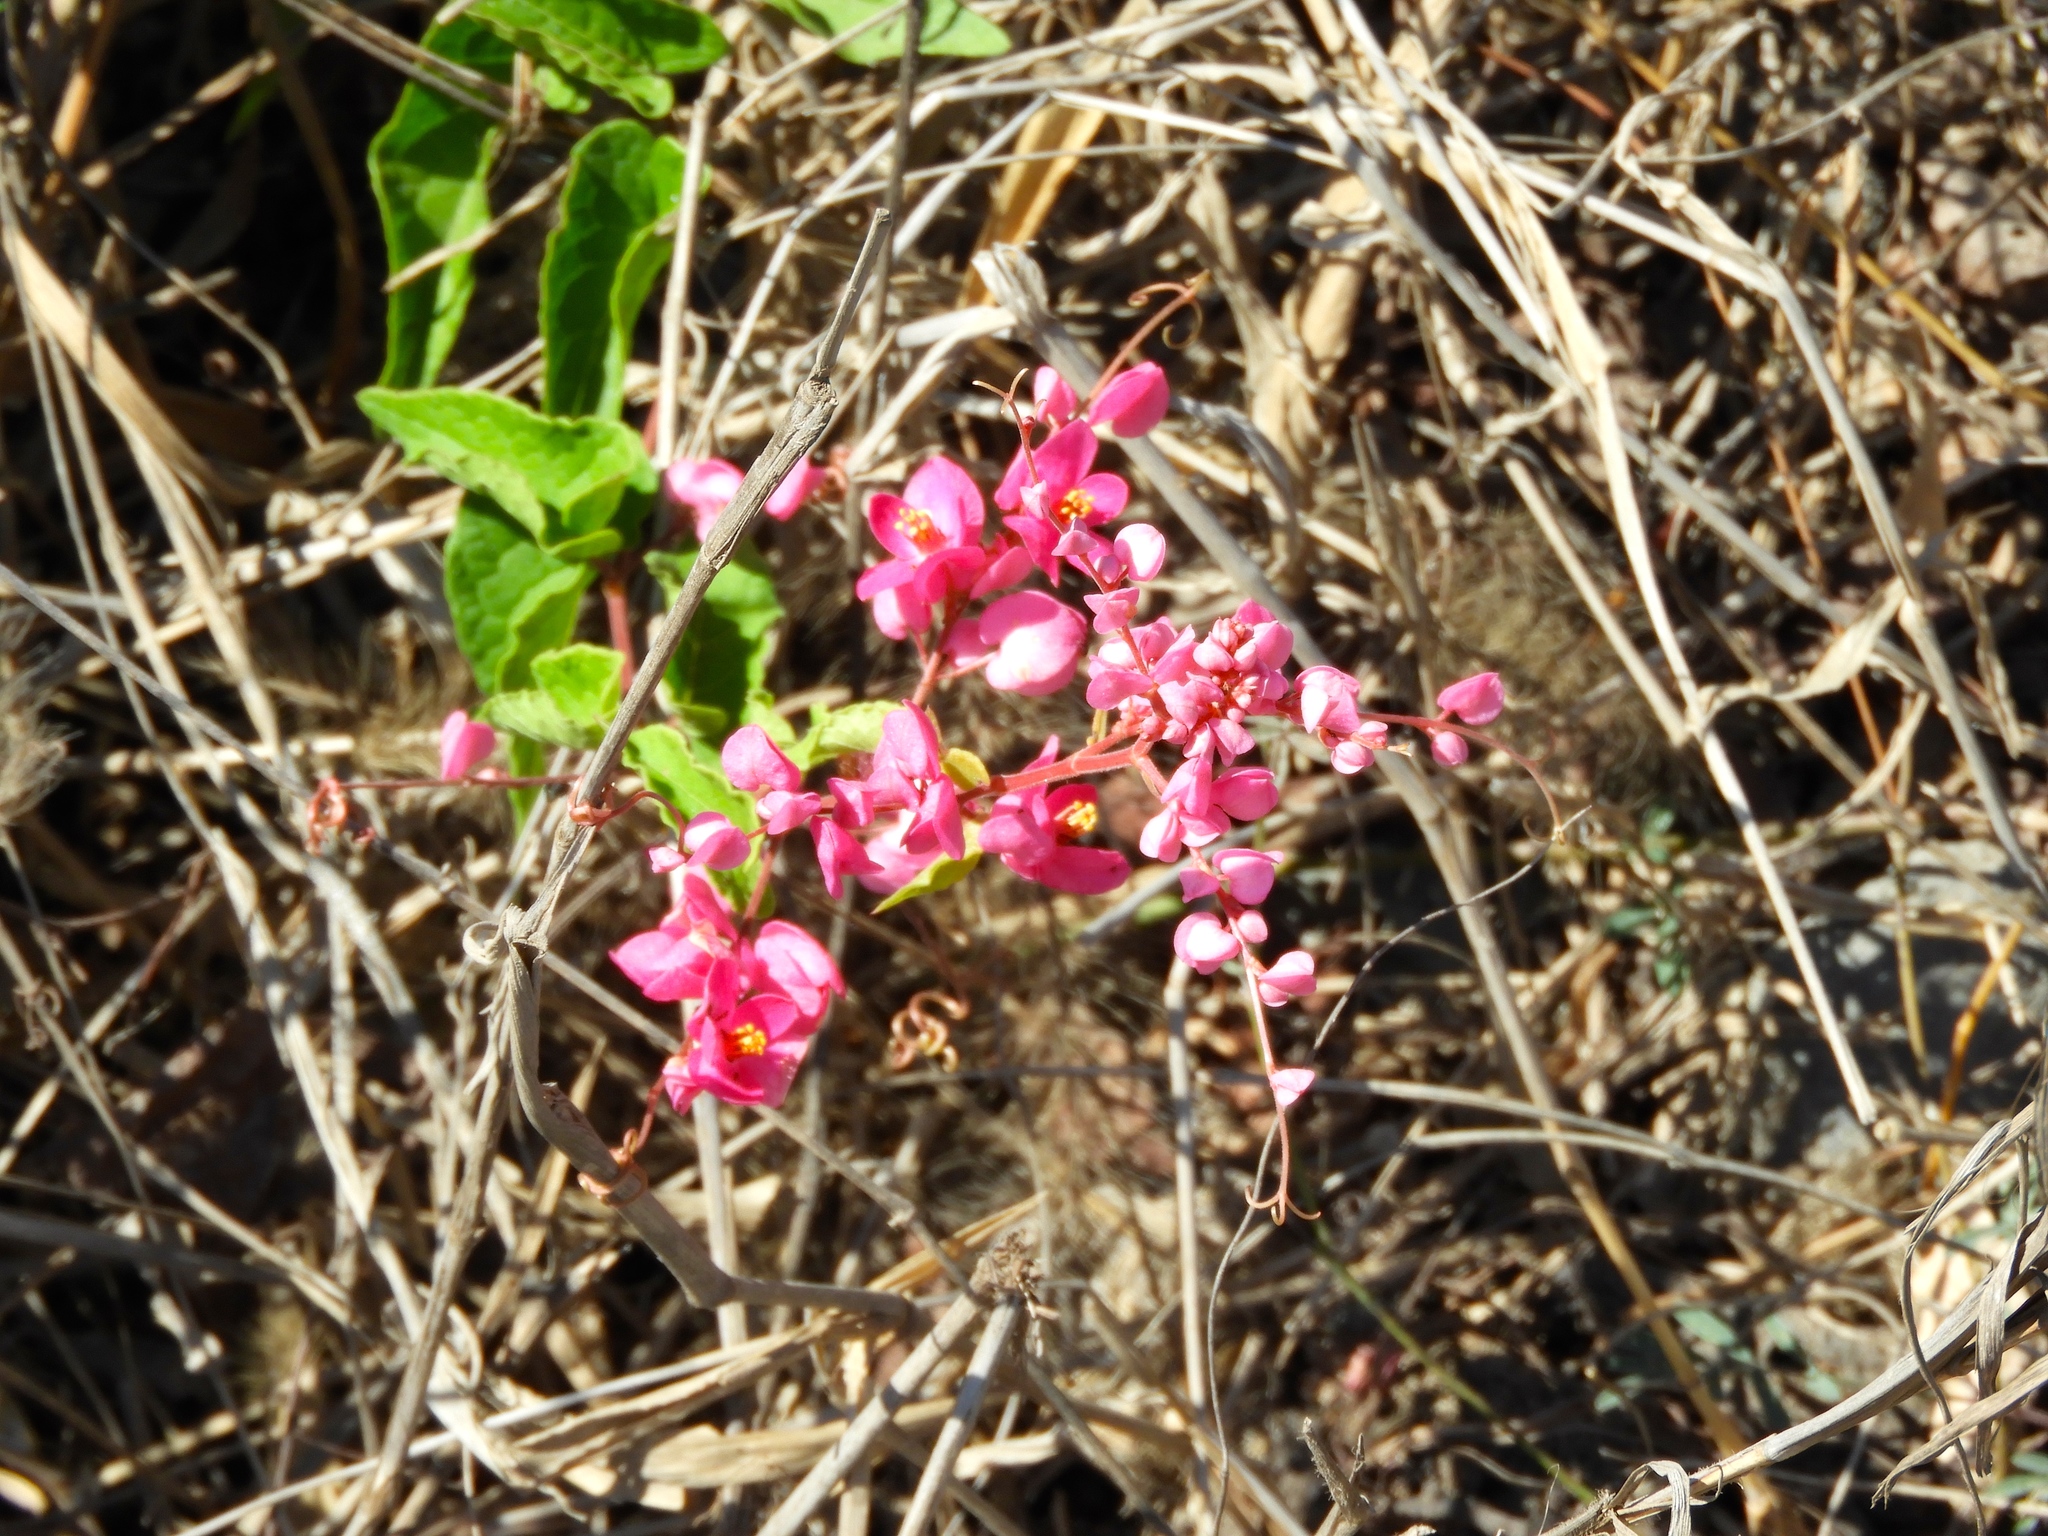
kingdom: Plantae
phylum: Tracheophyta
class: Magnoliopsida
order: Caryophyllales
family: Polygonaceae
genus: Antigonon
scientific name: Antigonon leptopus
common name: Coral vine
